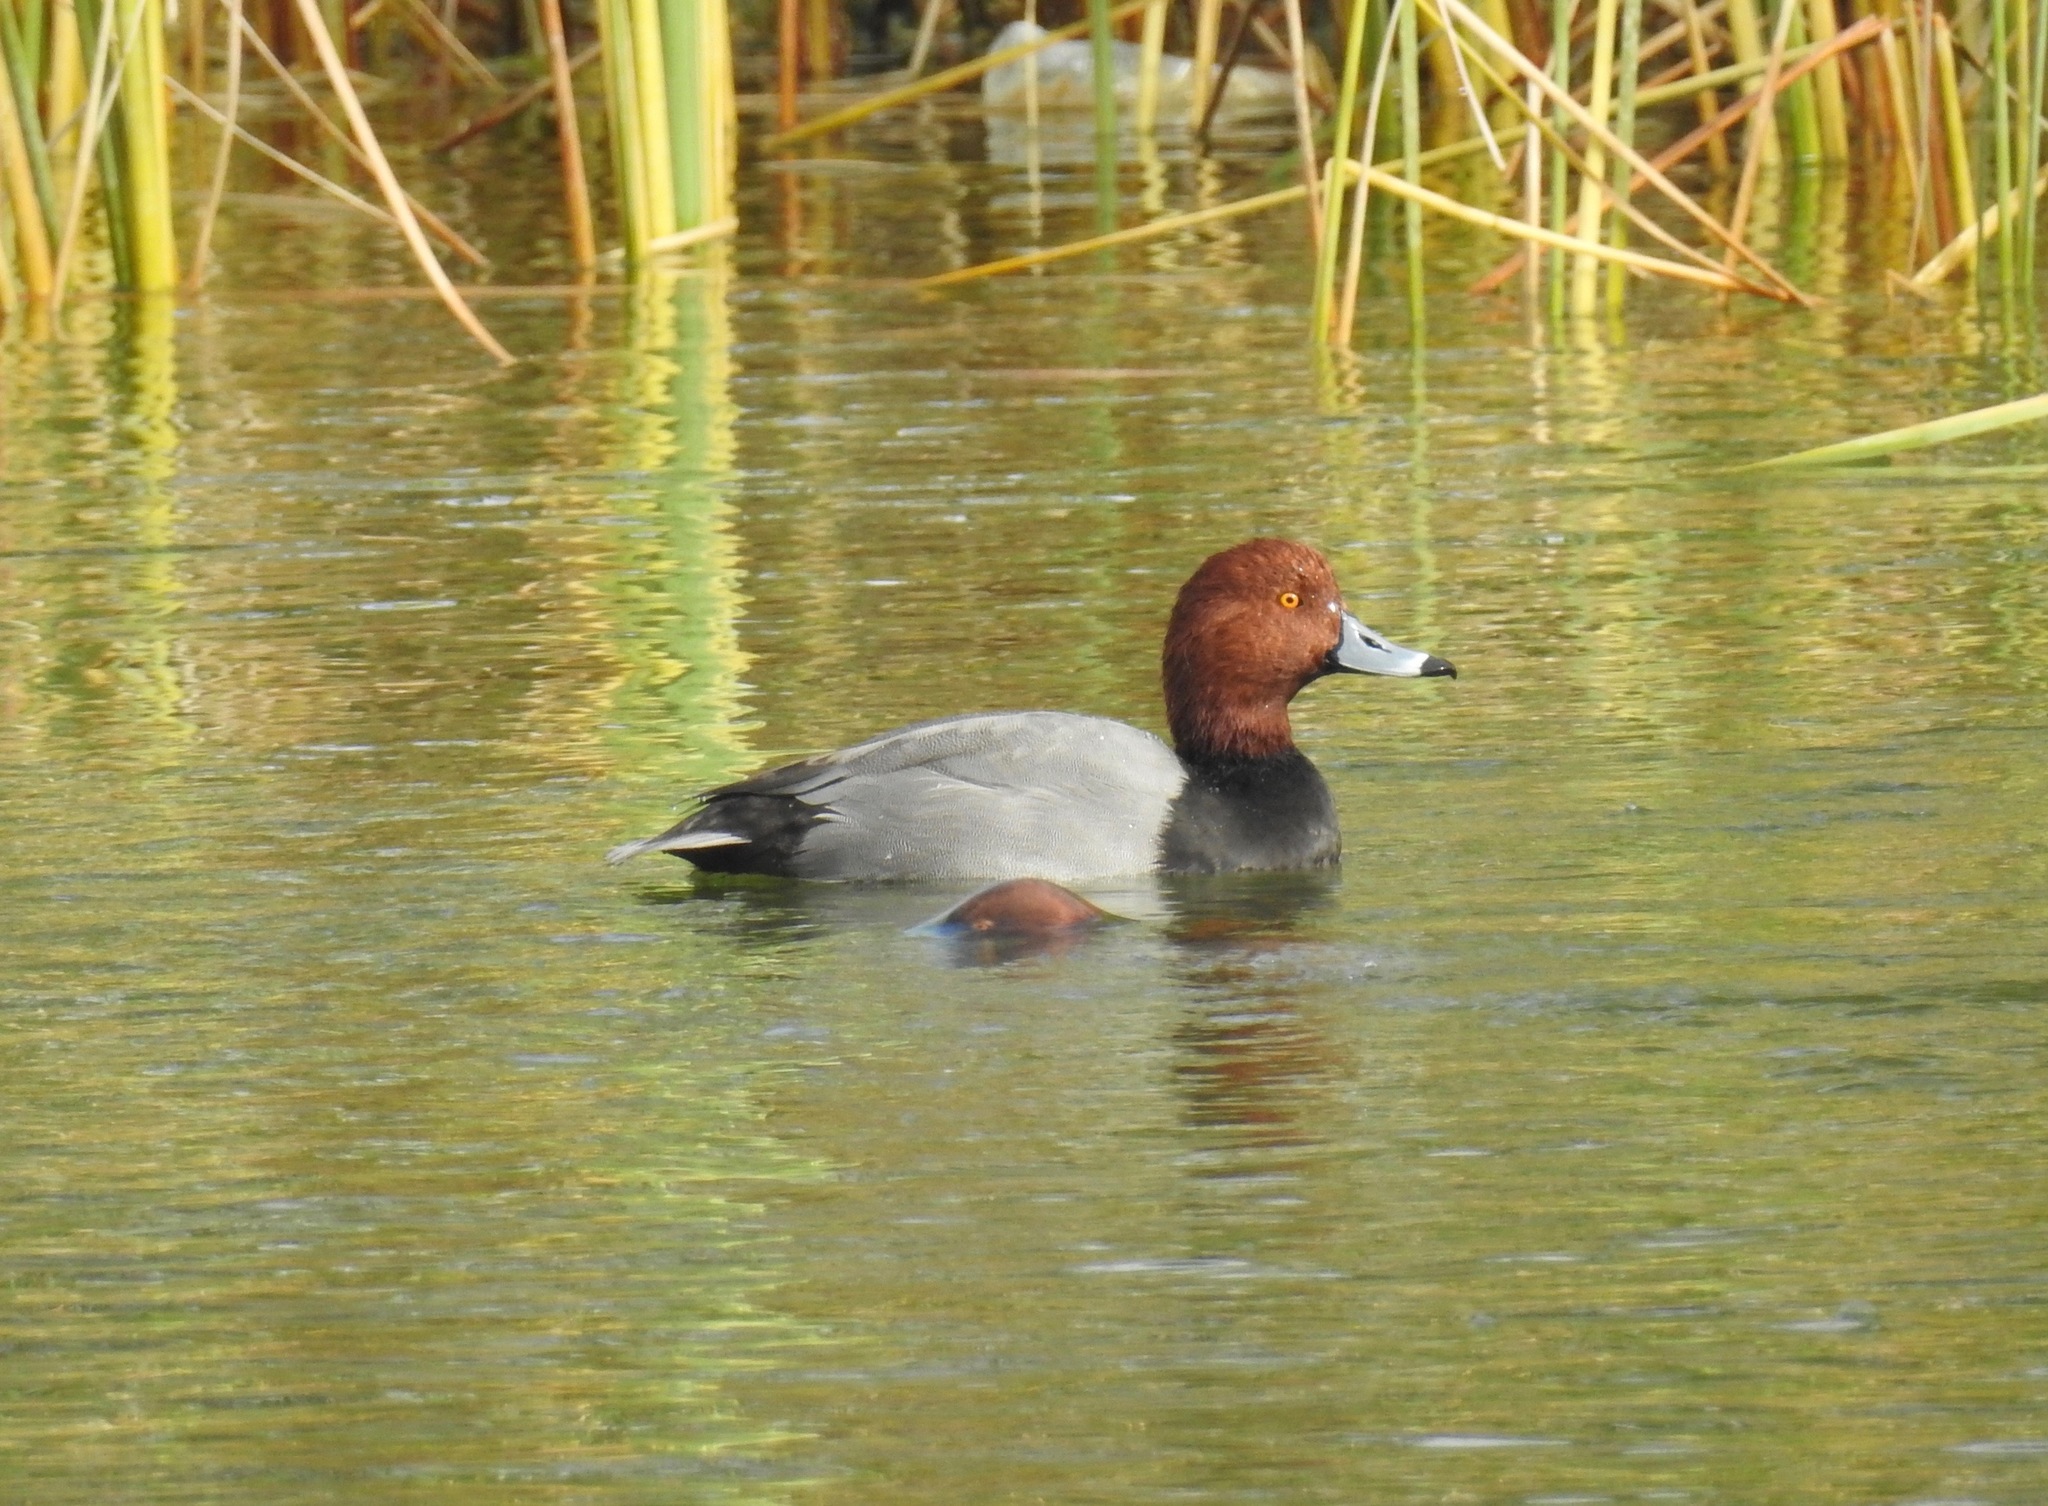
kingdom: Animalia
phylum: Chordata
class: Aves
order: Anseriformes
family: Anatidae
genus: Aythya
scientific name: Aythya americana
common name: Redhead
